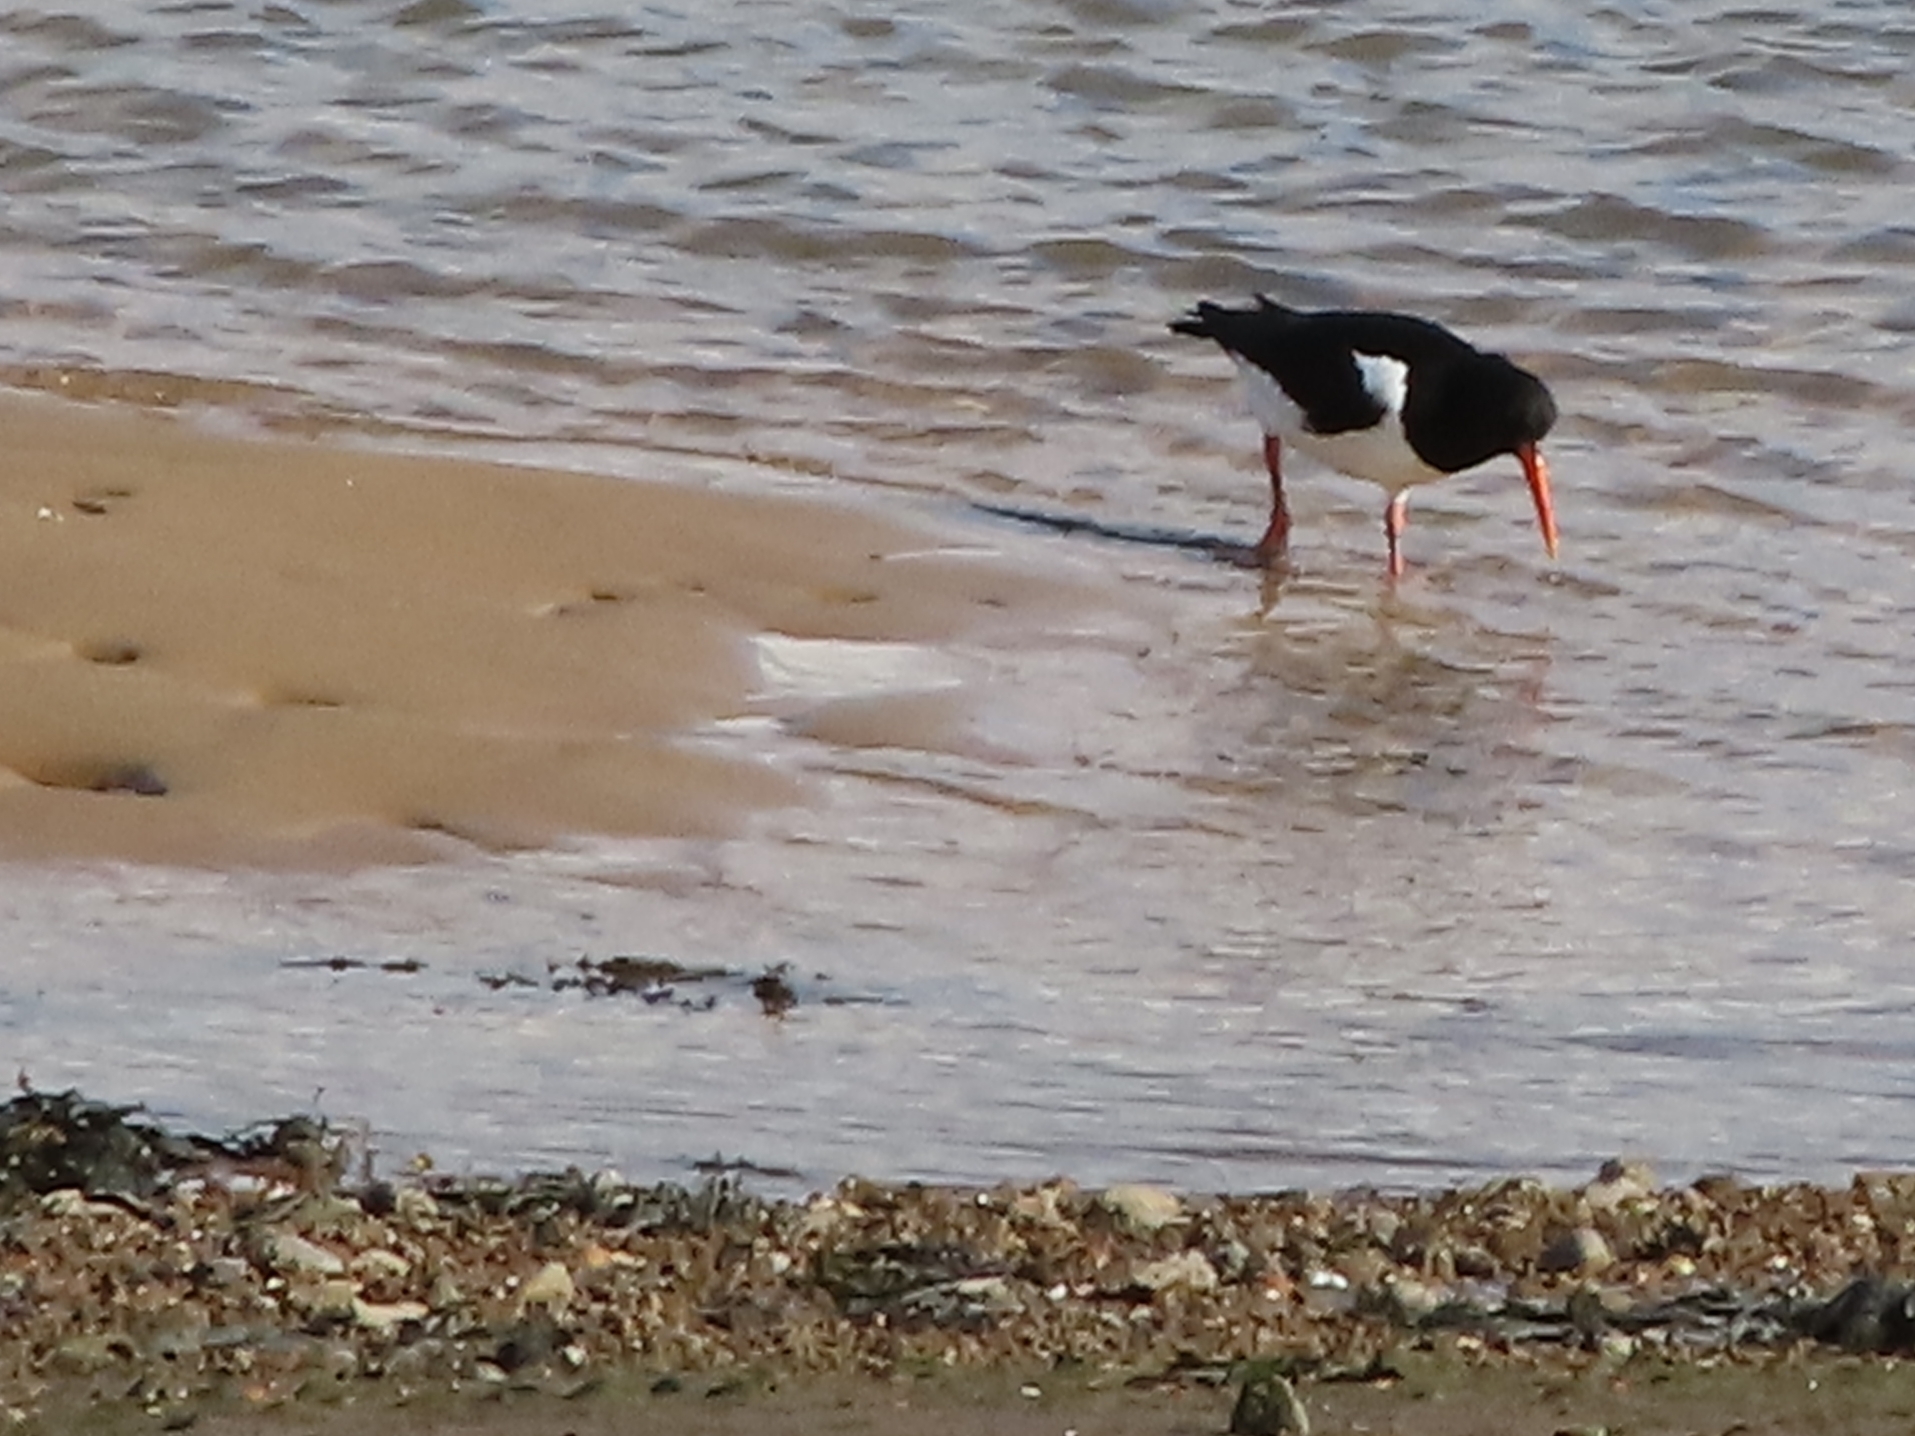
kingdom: Animalia
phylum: Chordata
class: Aves
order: Charadriiformes
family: Haematopodidae
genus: Haematopus
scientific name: Haematopus ostralegus
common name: Eurasian oystercatcher
